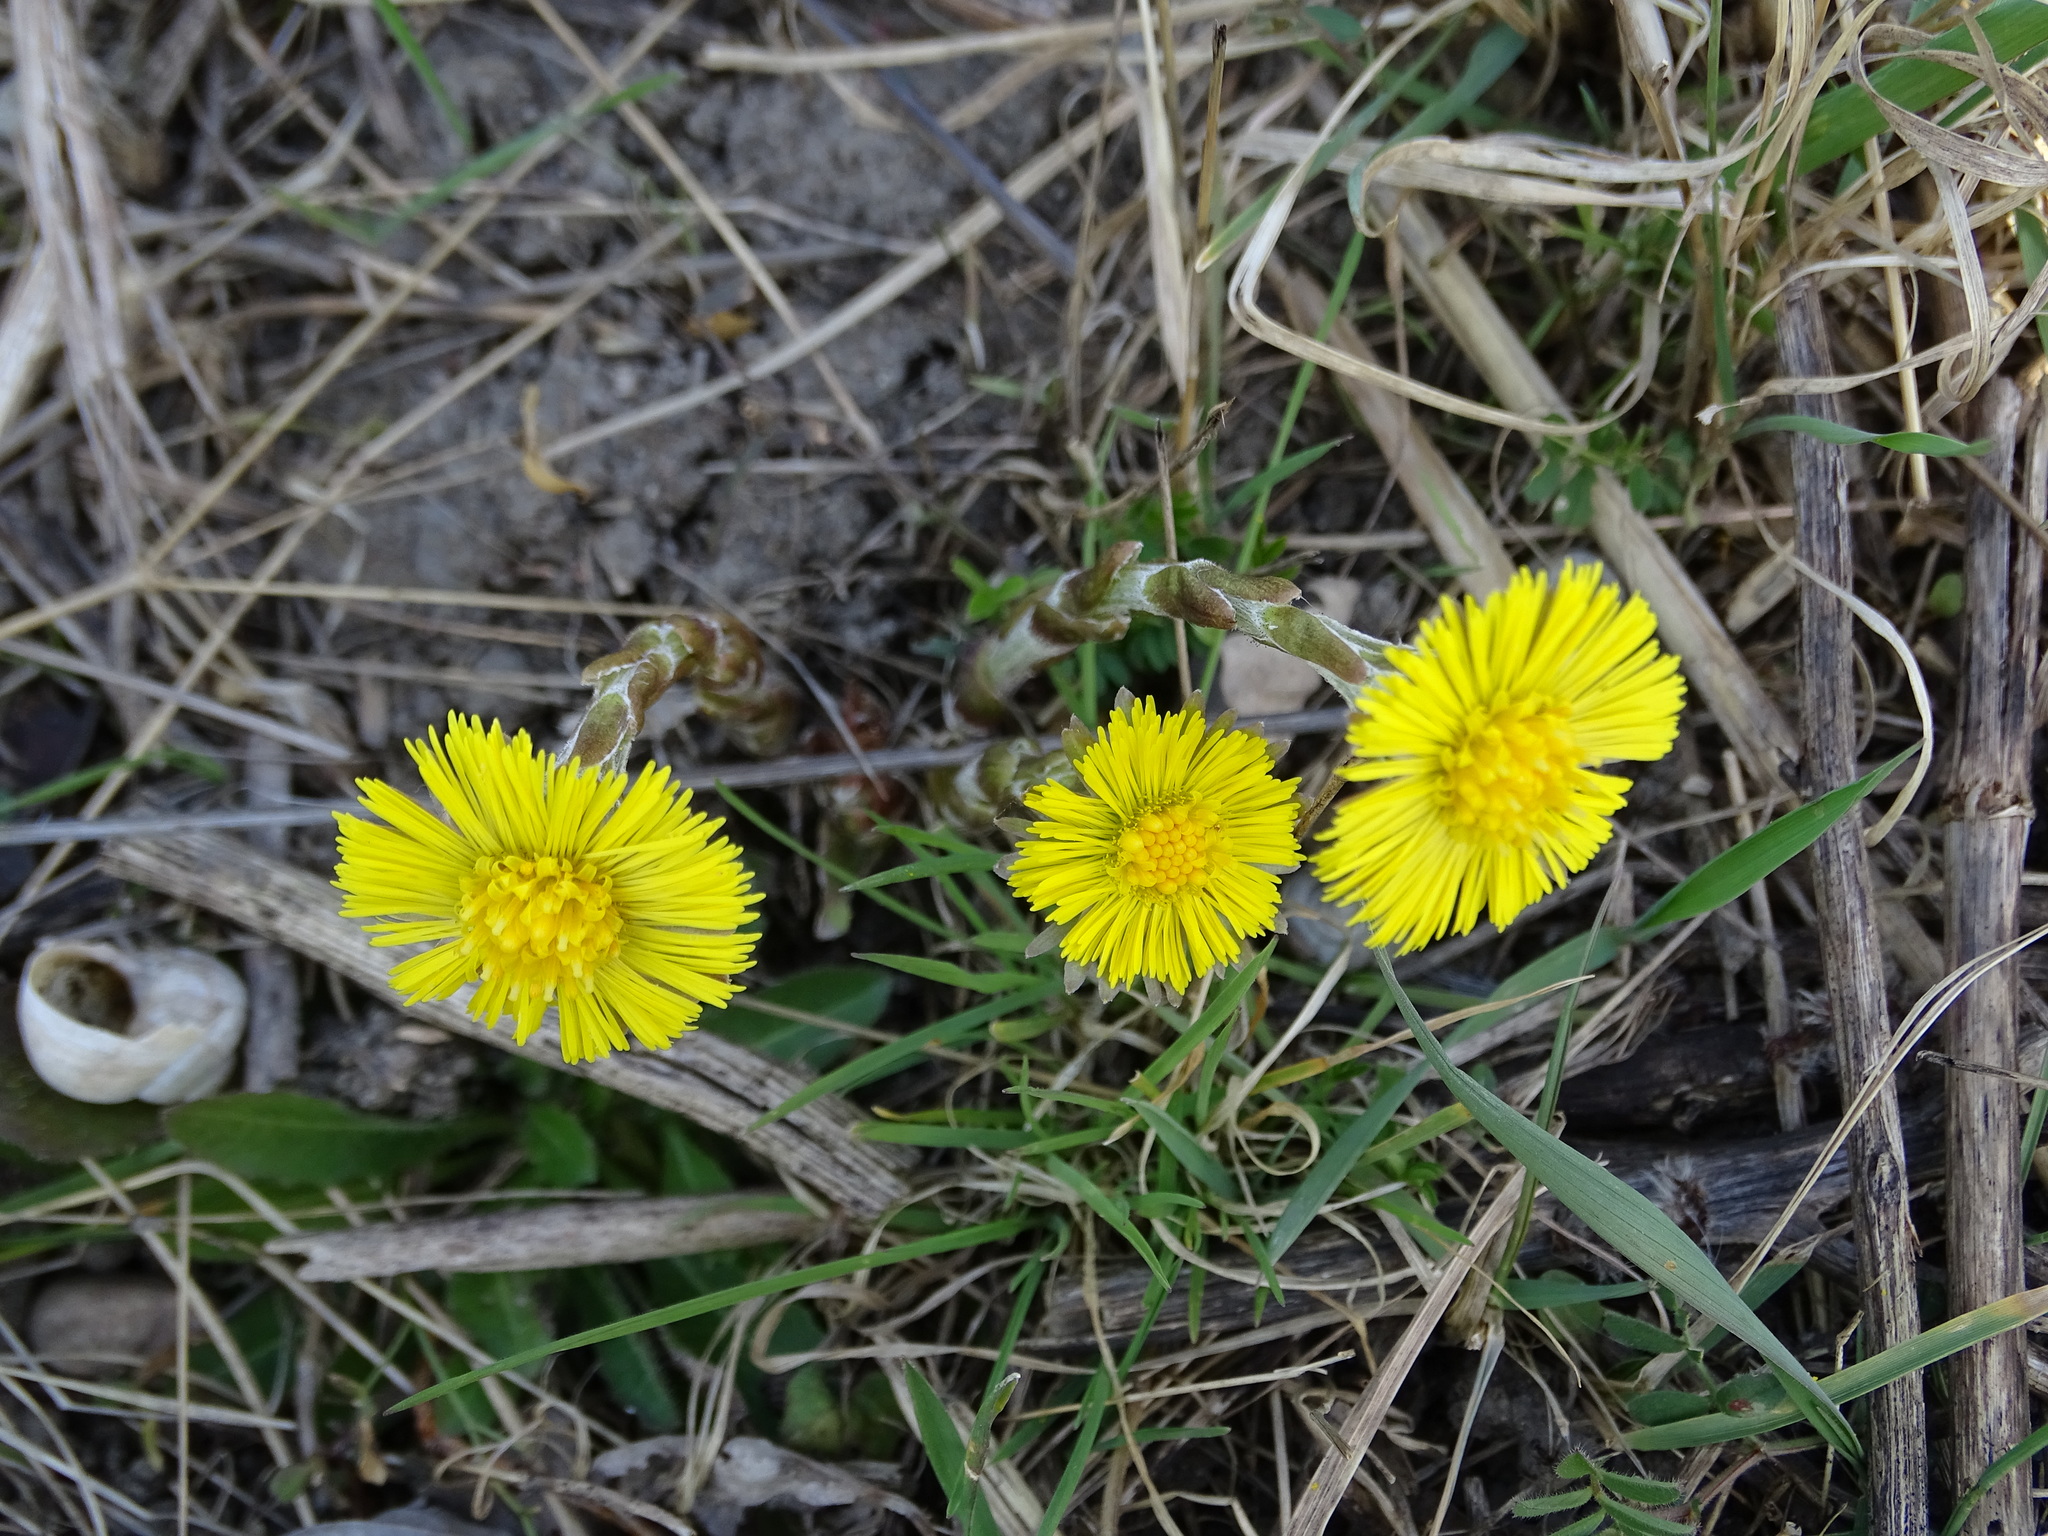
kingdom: Plantae
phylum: Tracheophyta
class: Magnoliopsida
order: Asterales
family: Asteraceae
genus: Tussilago
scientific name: Tussilago farfara
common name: Coltsfoot
